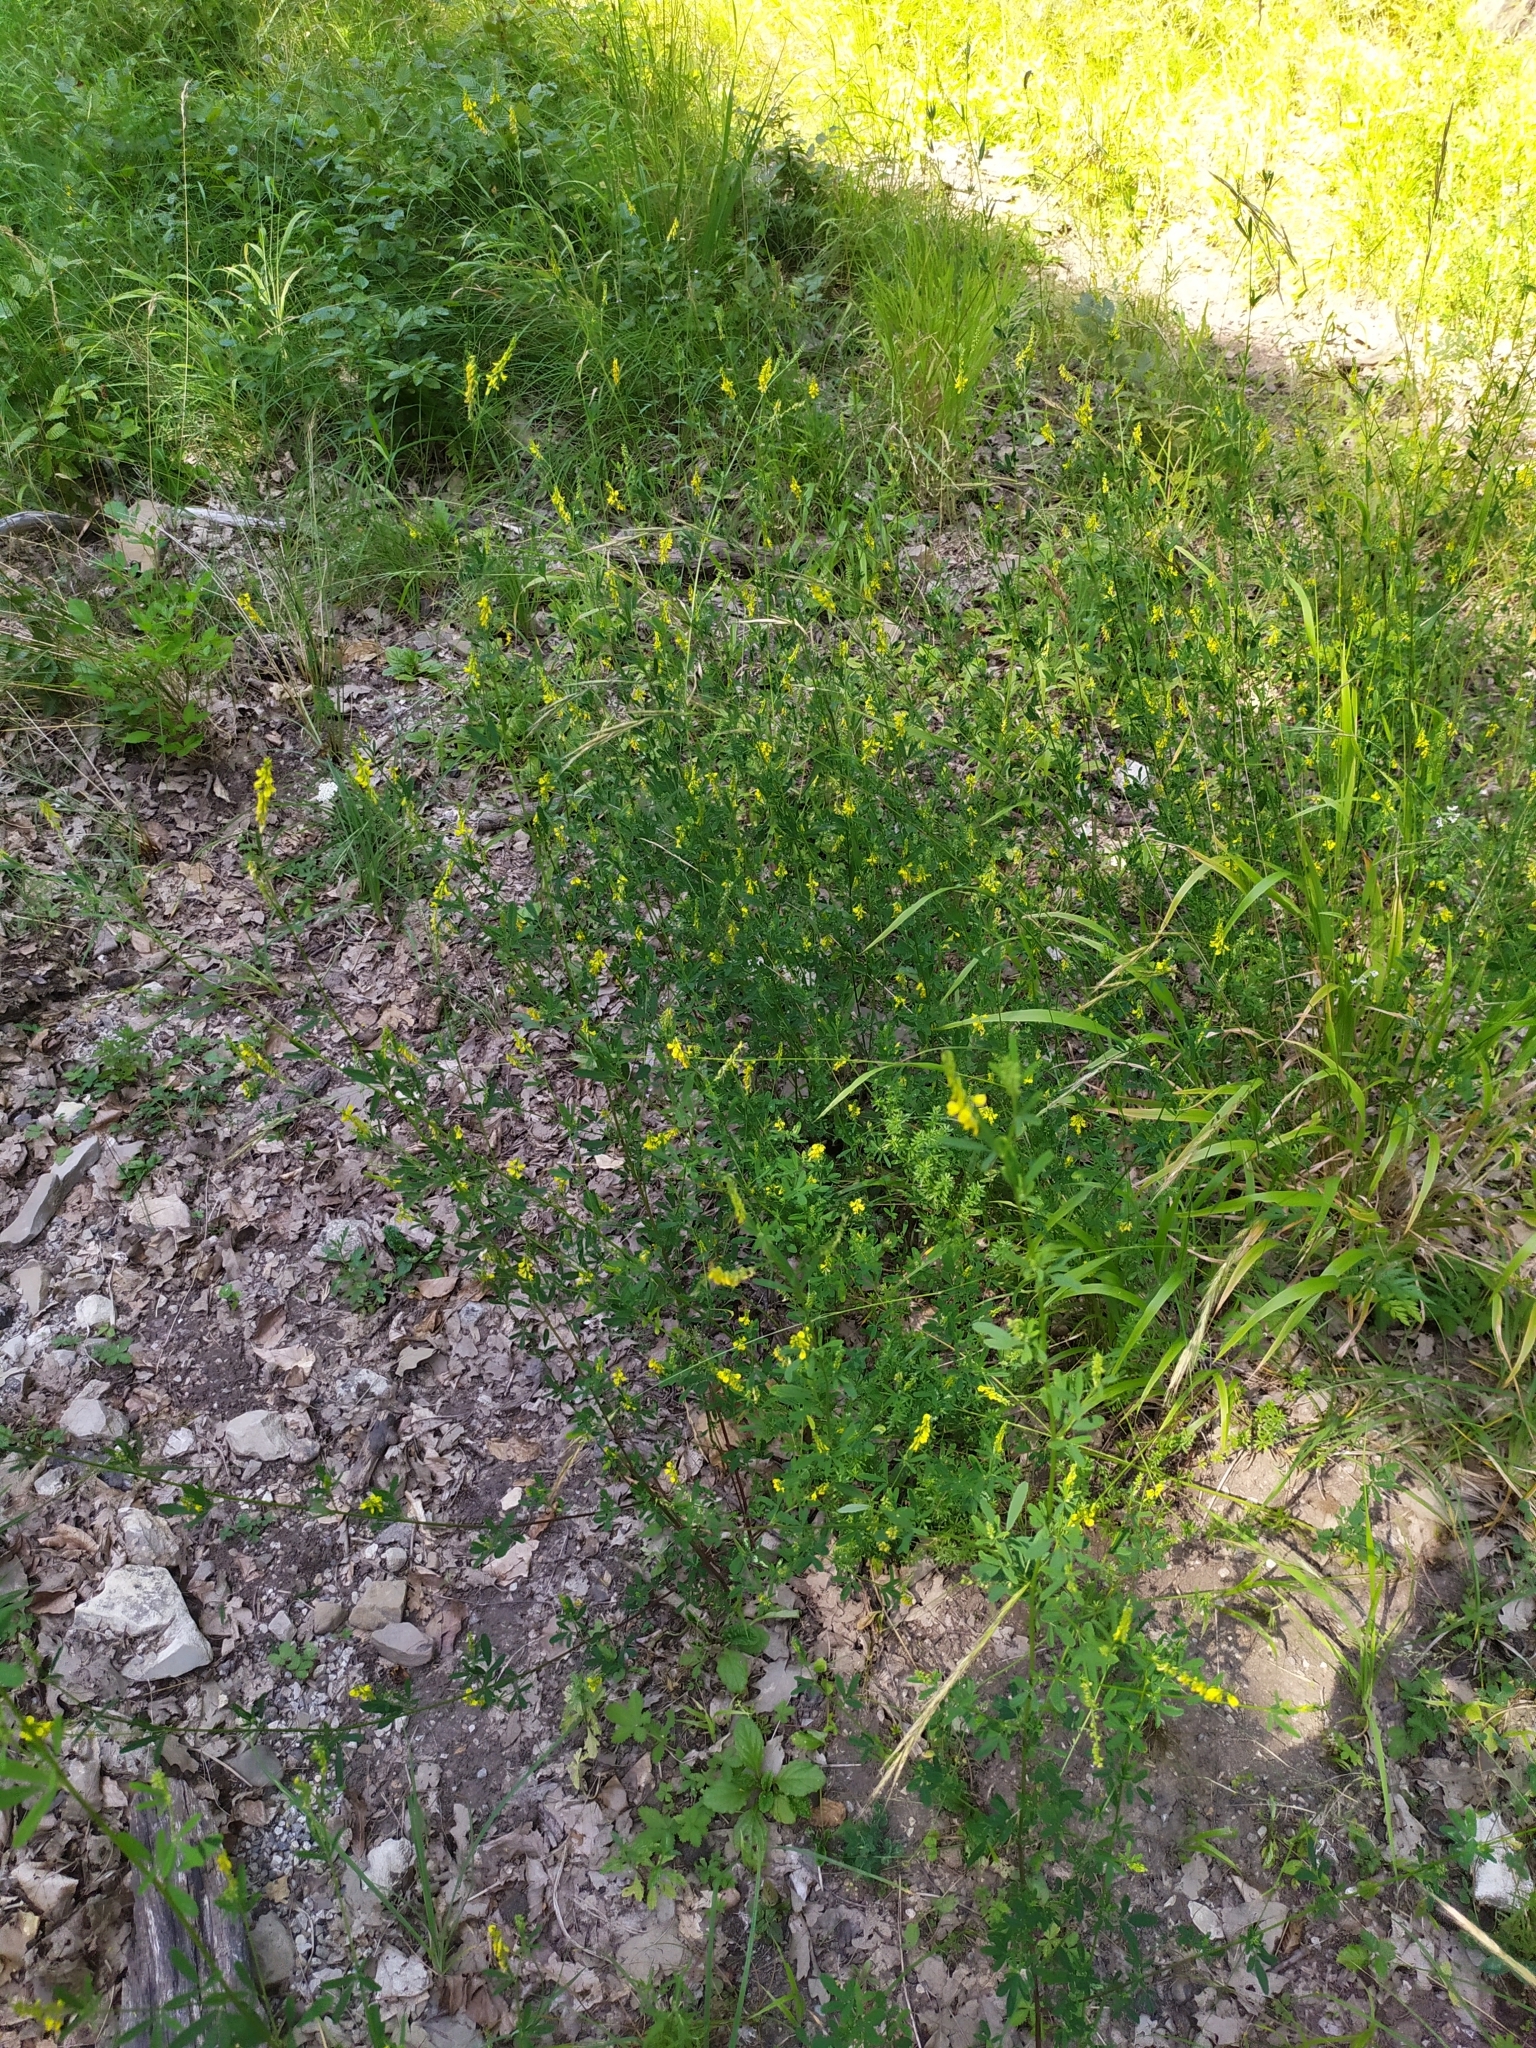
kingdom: Plantae
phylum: Tracheophyta
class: Magnoliopsida
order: Fabales
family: Fabaceae
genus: Melilotus
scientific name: Melilotus altissimus
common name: Tall melilot
